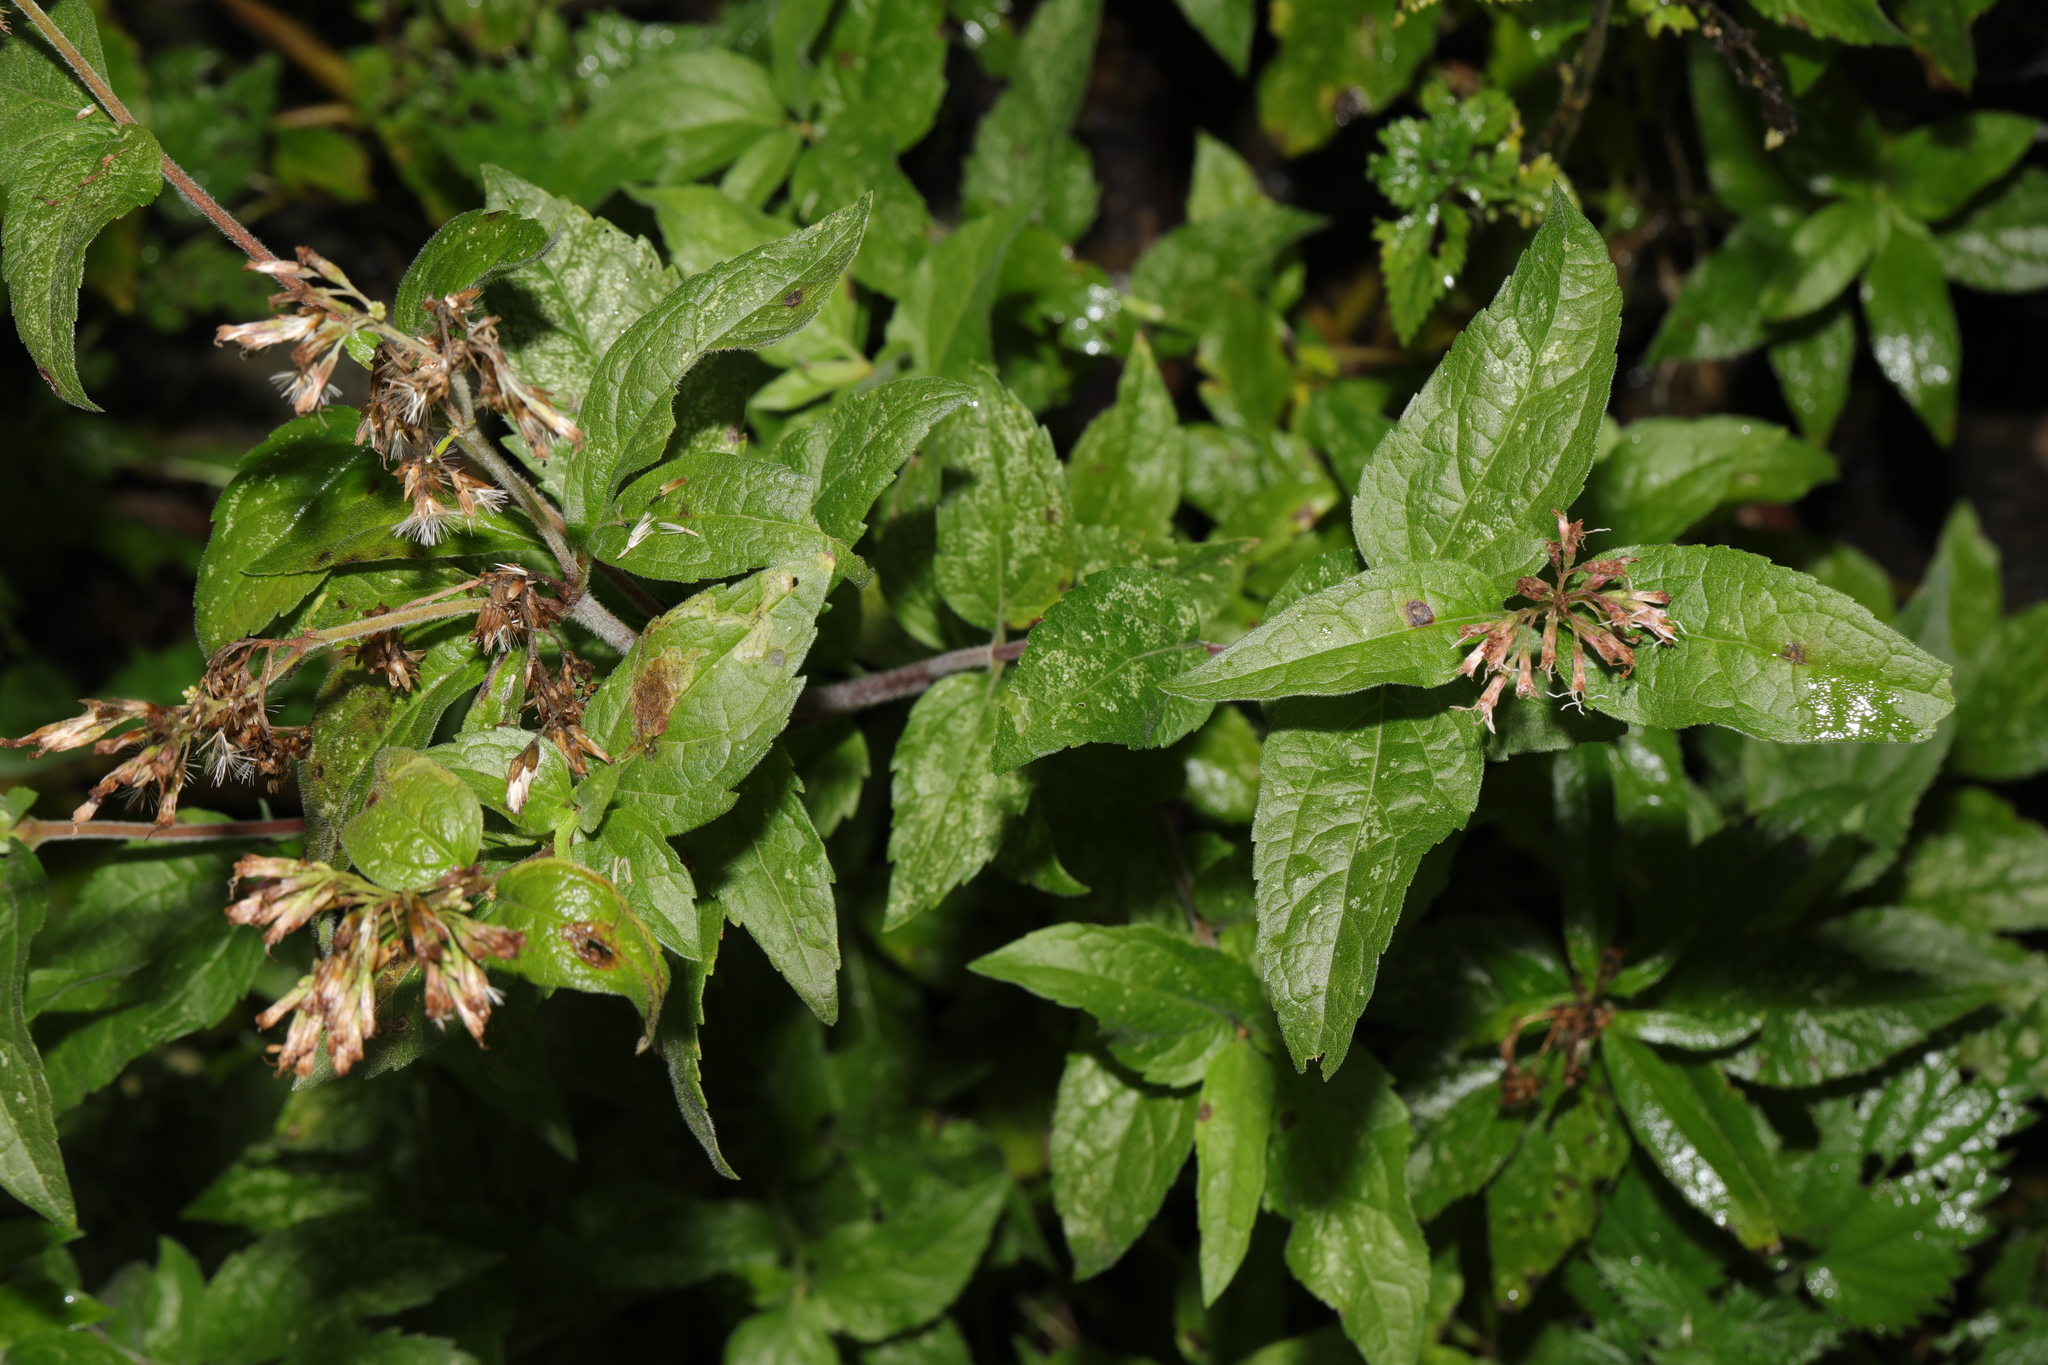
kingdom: Plantae
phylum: Tracheophyta
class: Magnoliopsida
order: Asterales
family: Asteraceae
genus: Eupatorium
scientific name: Eupatorium cannabinum
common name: Hemp-agrimony
